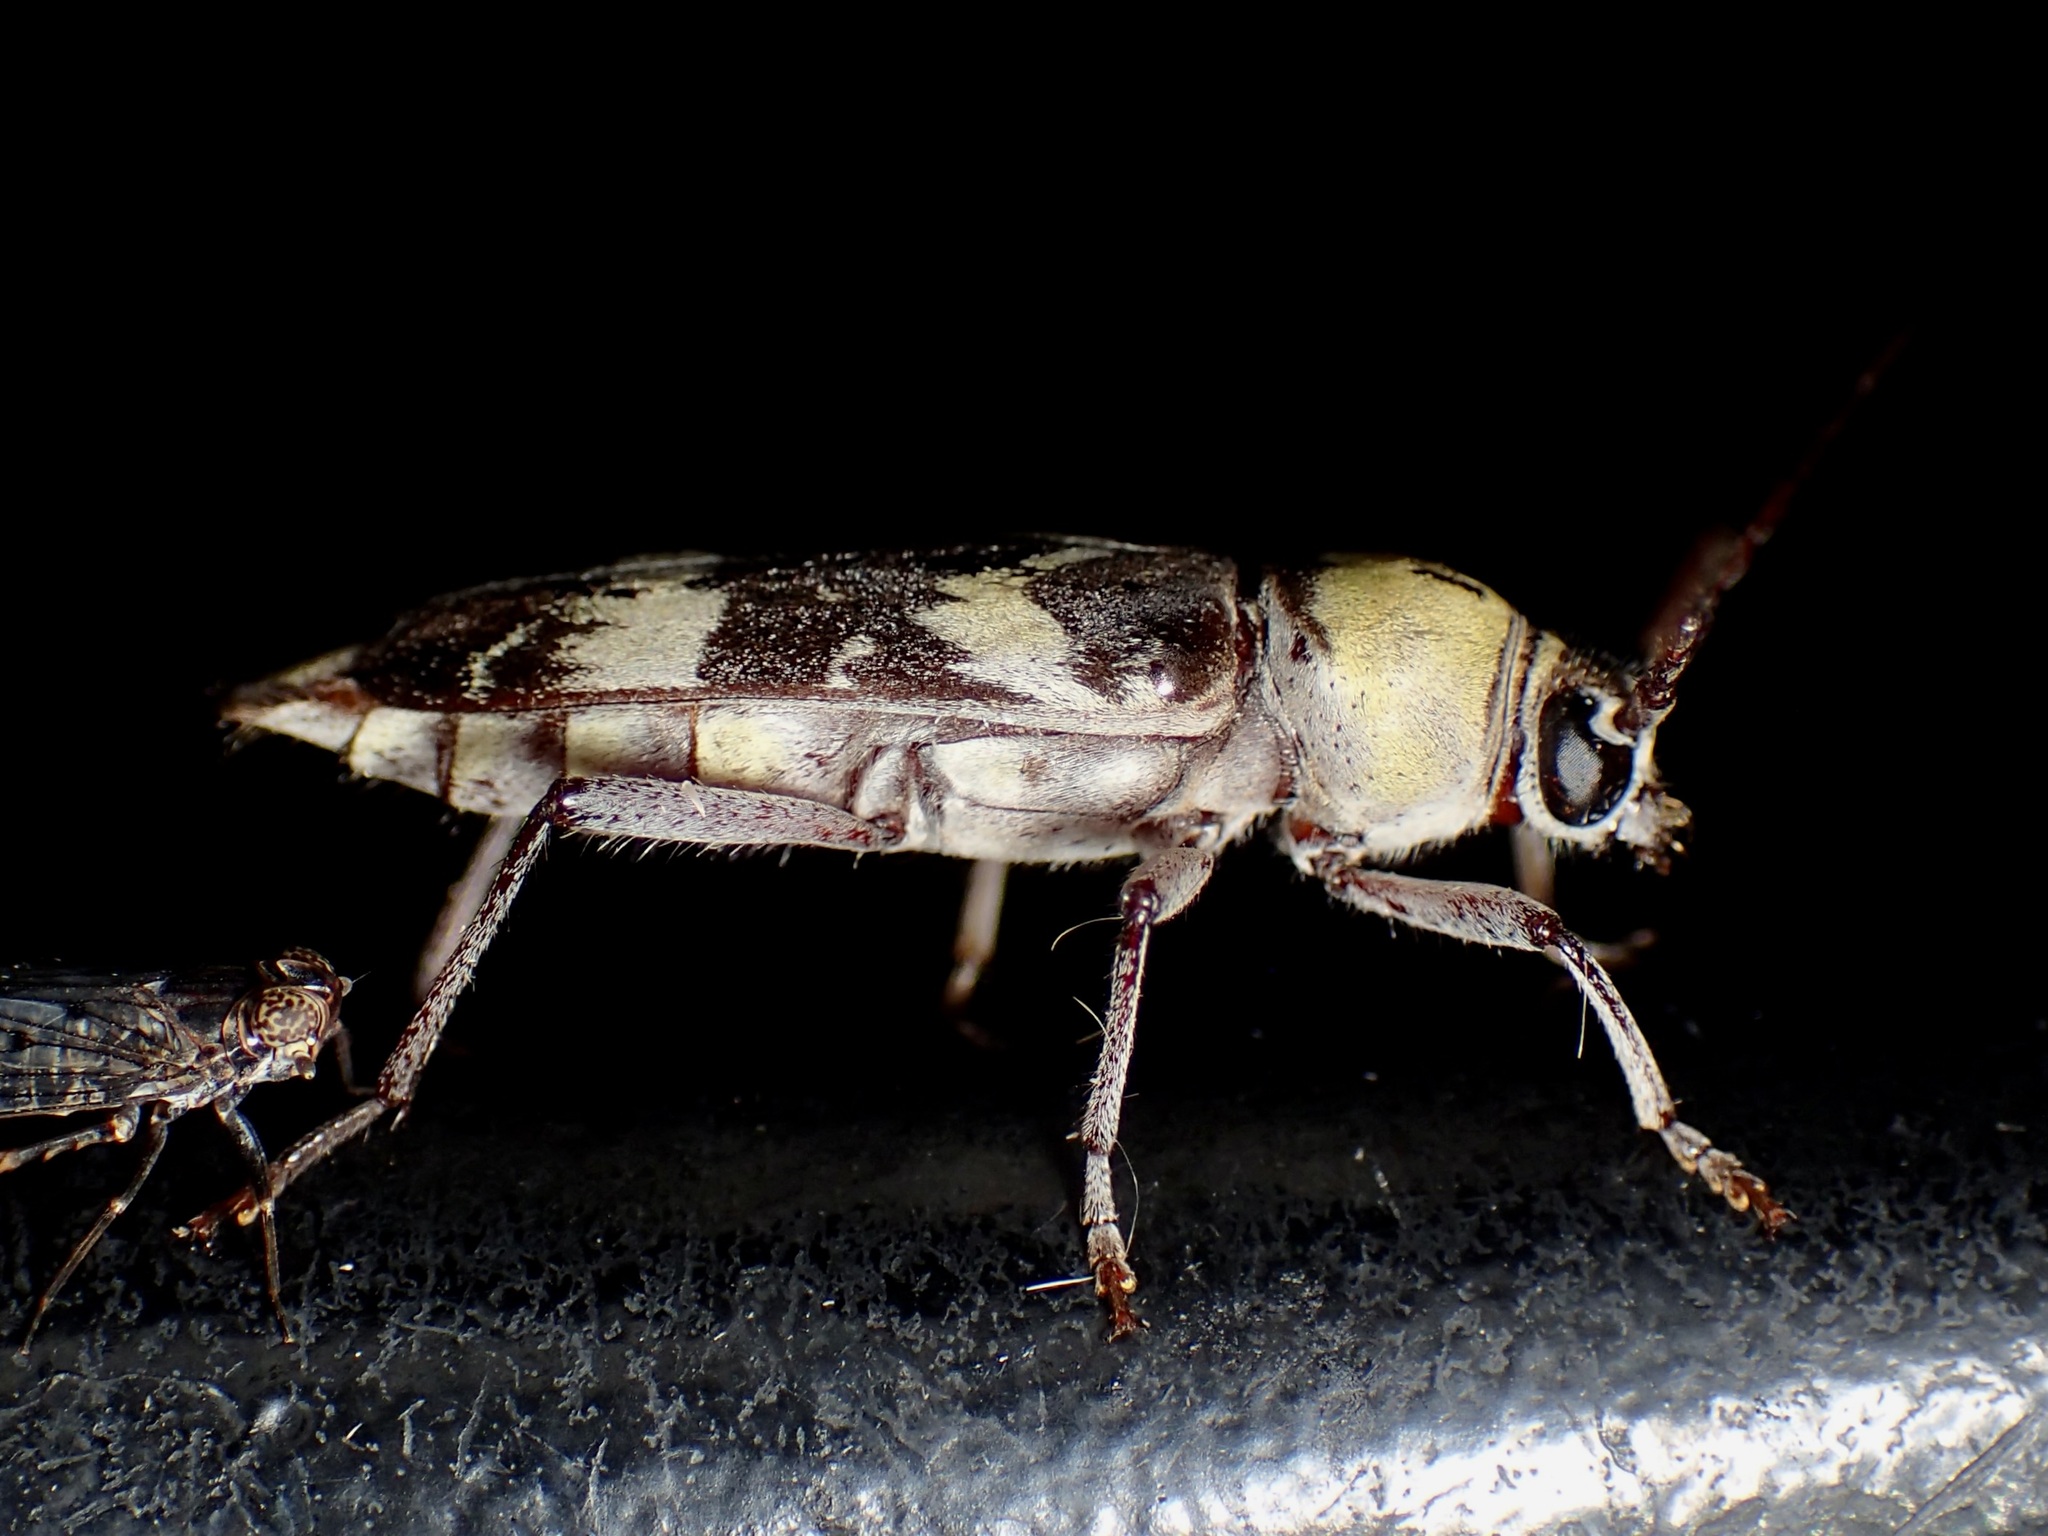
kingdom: Animalia
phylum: Arthropoda
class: Insecta
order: Coleoptera
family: Cerambycidae
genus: Megacyllene
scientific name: Megacyllene antennata
